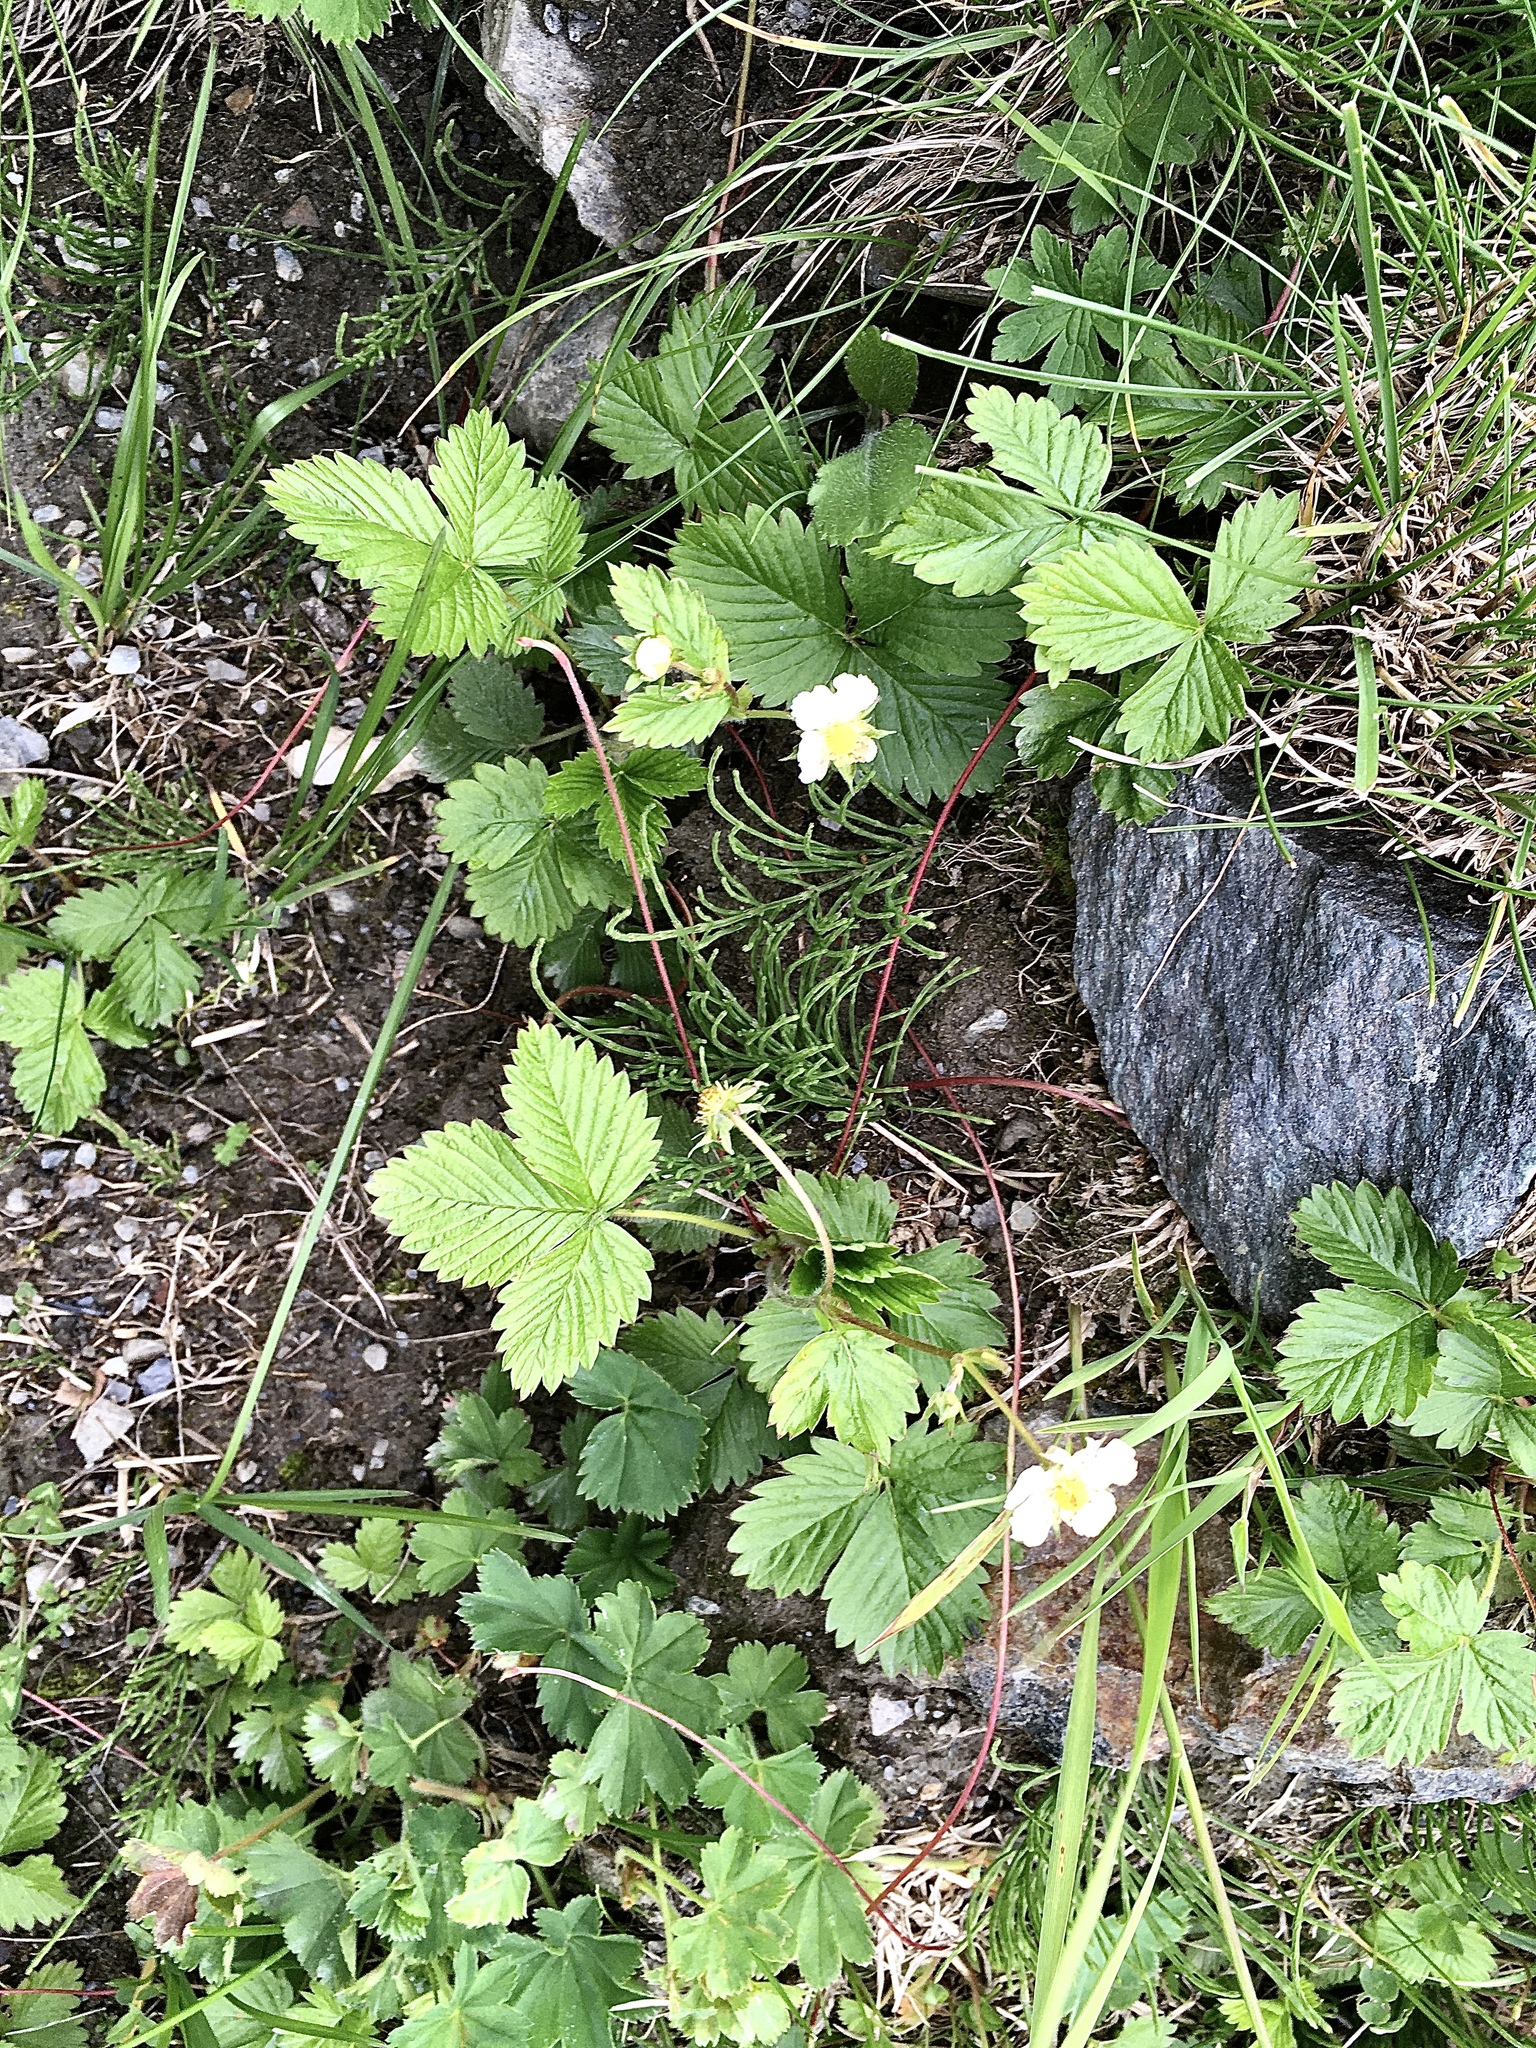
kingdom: Plantae
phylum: Tracheophyta
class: Magnoliopsida
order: Rosales
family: Rosaceae
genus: Fragaria
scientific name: Fragaria vesca
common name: Wild strawberry
